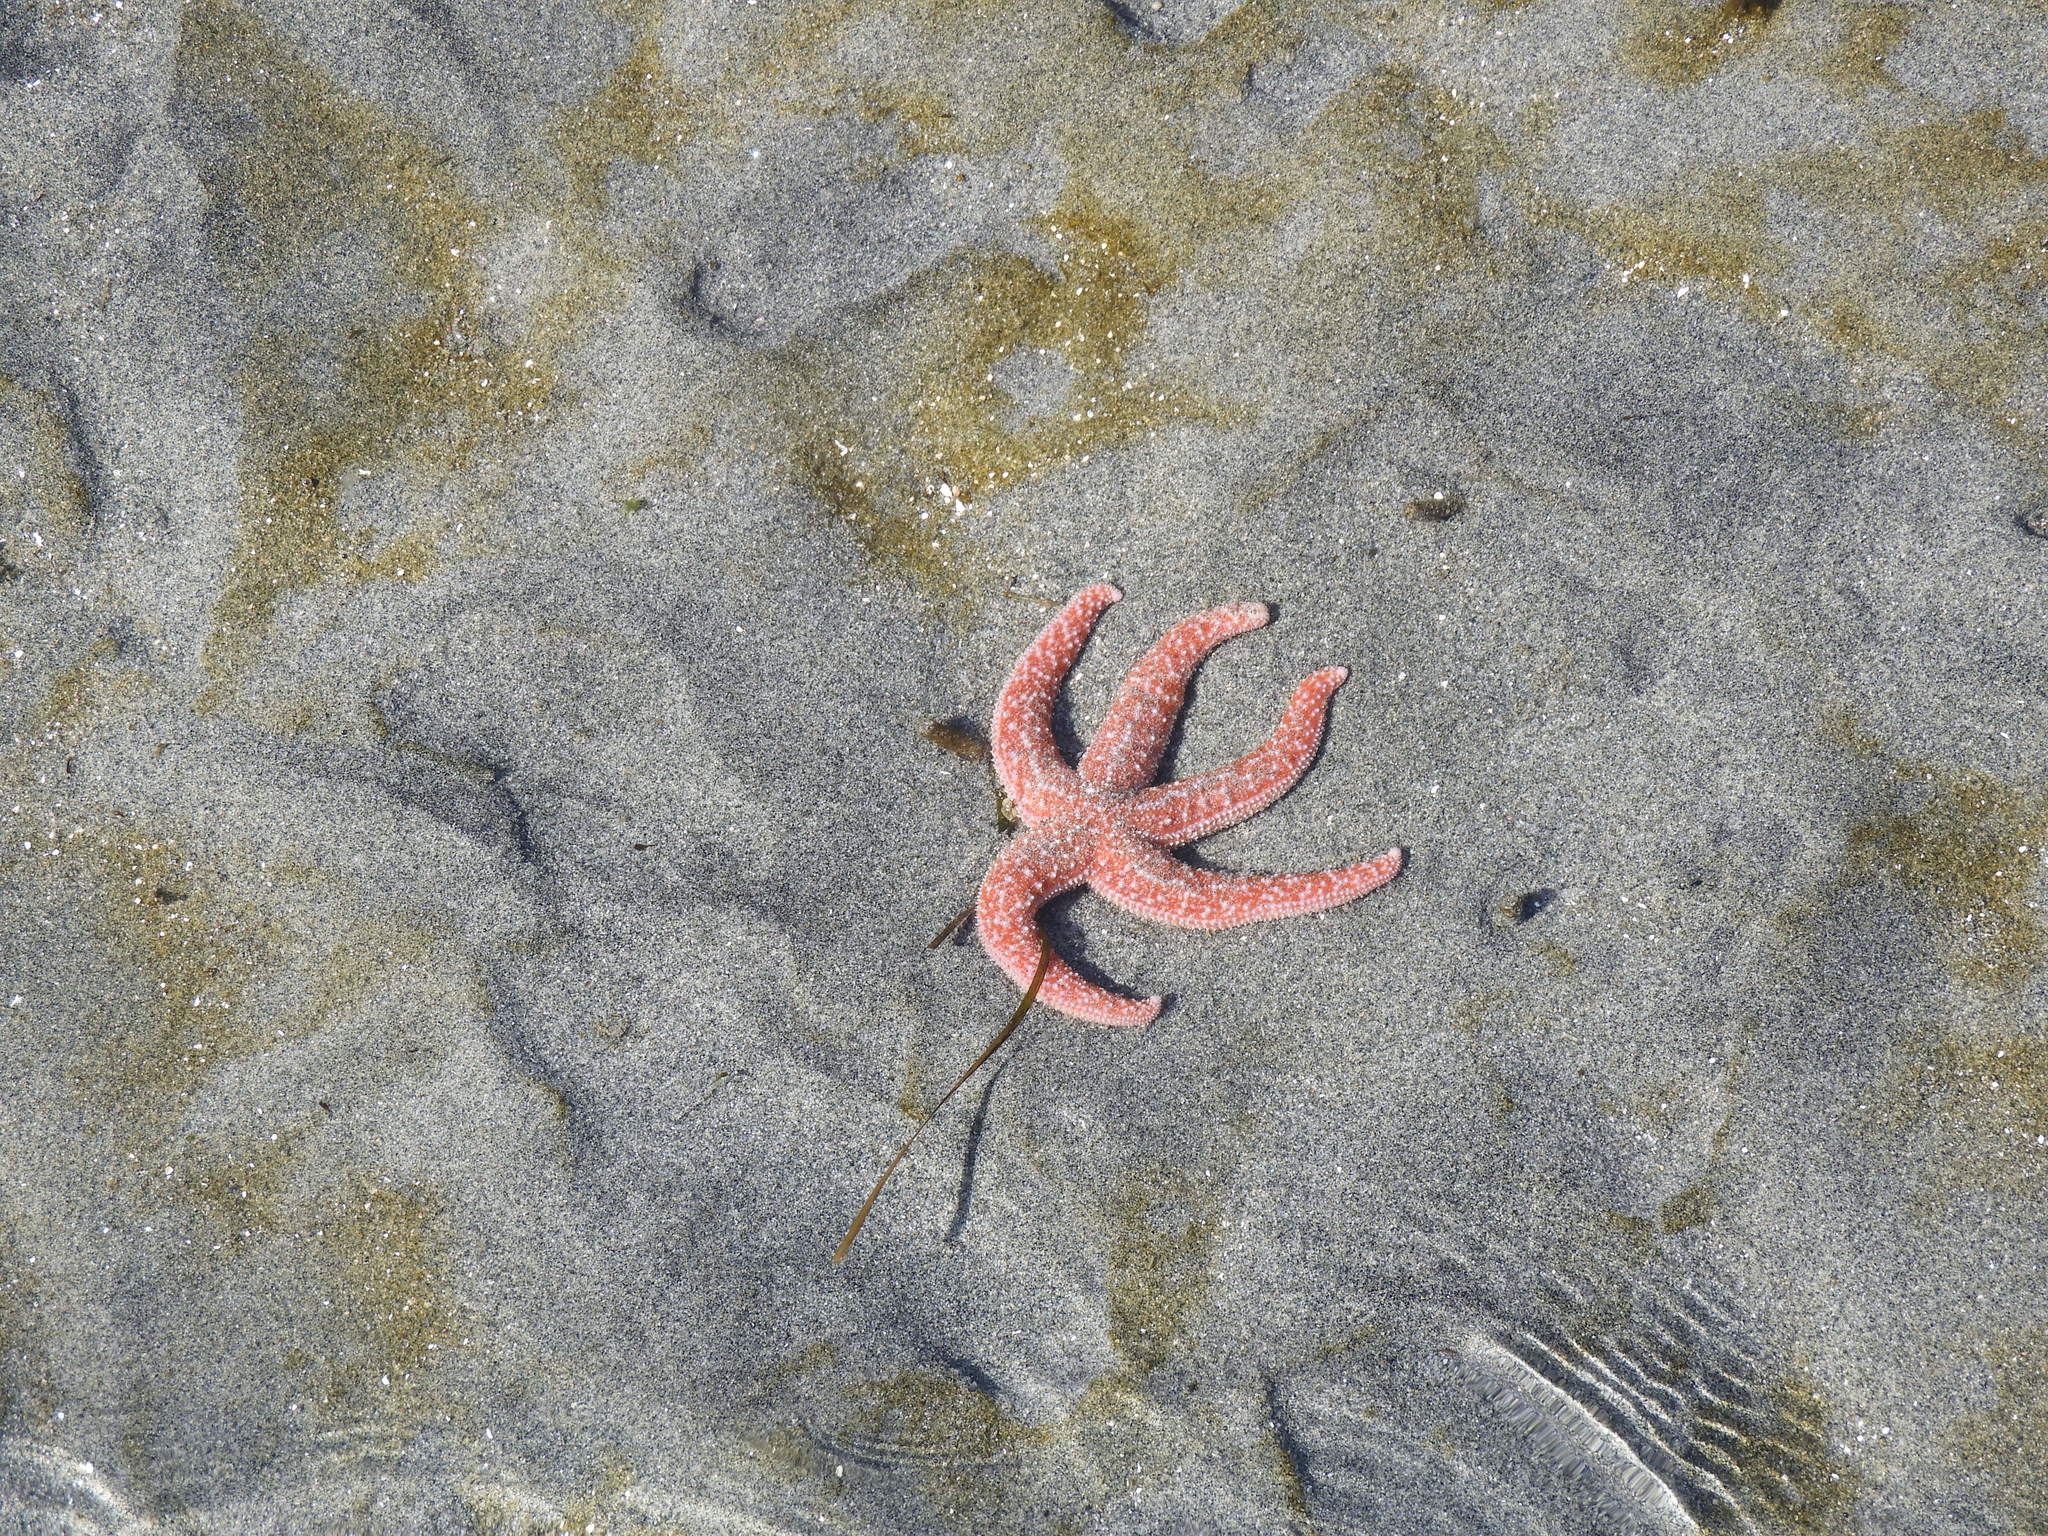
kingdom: Animalia
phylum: Echinodermata
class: Asteroidea
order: Forcipulatida
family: Asteriidae
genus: Evasterias
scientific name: Evasterias troschelii
